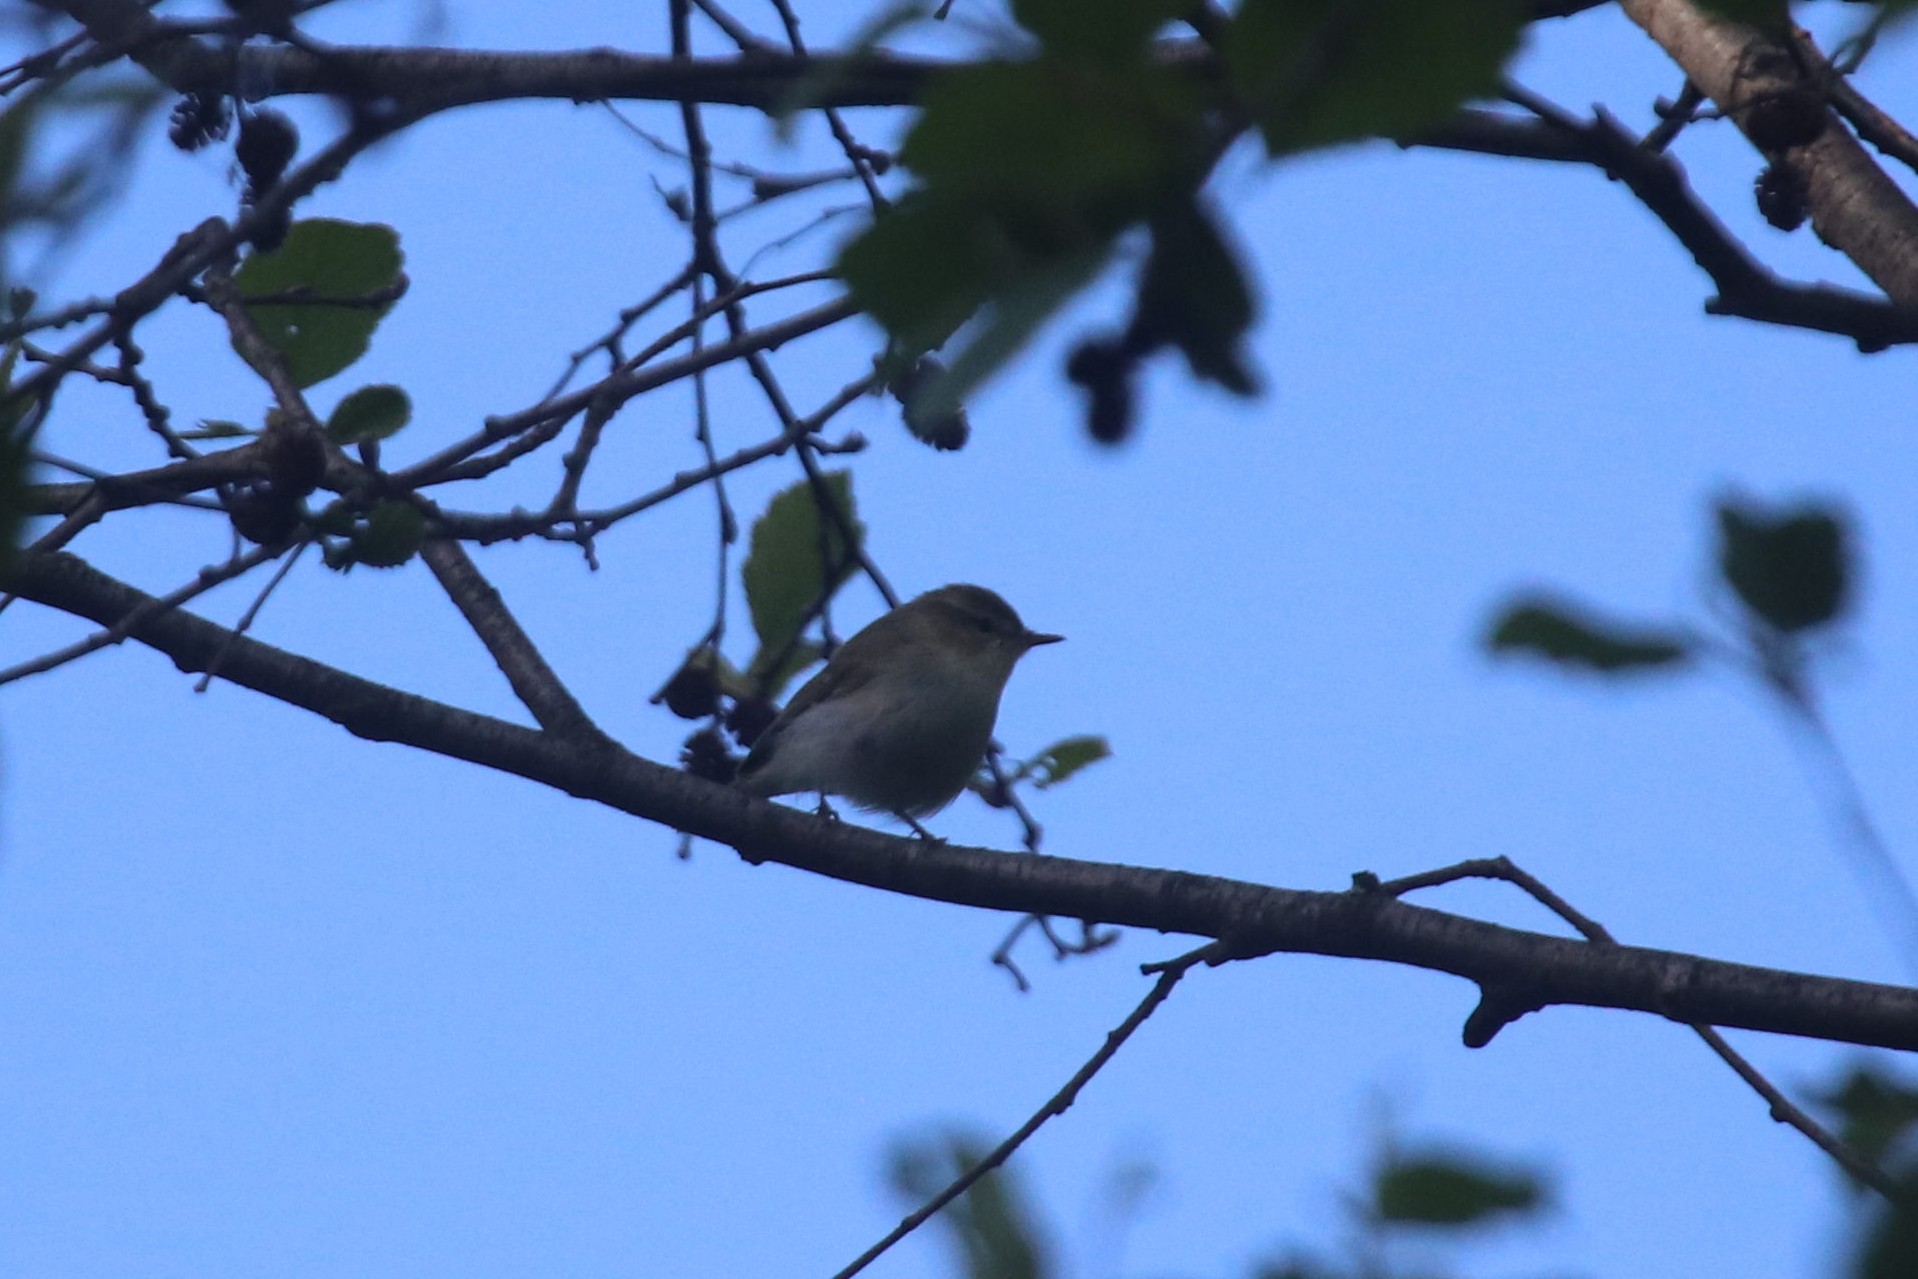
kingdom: Animalia
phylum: Chordata
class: Aves
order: Passeriformes
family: Phylloscopidae
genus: Phylloscopus
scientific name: Phylloscopus trochiloides
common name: Greenish warbler
